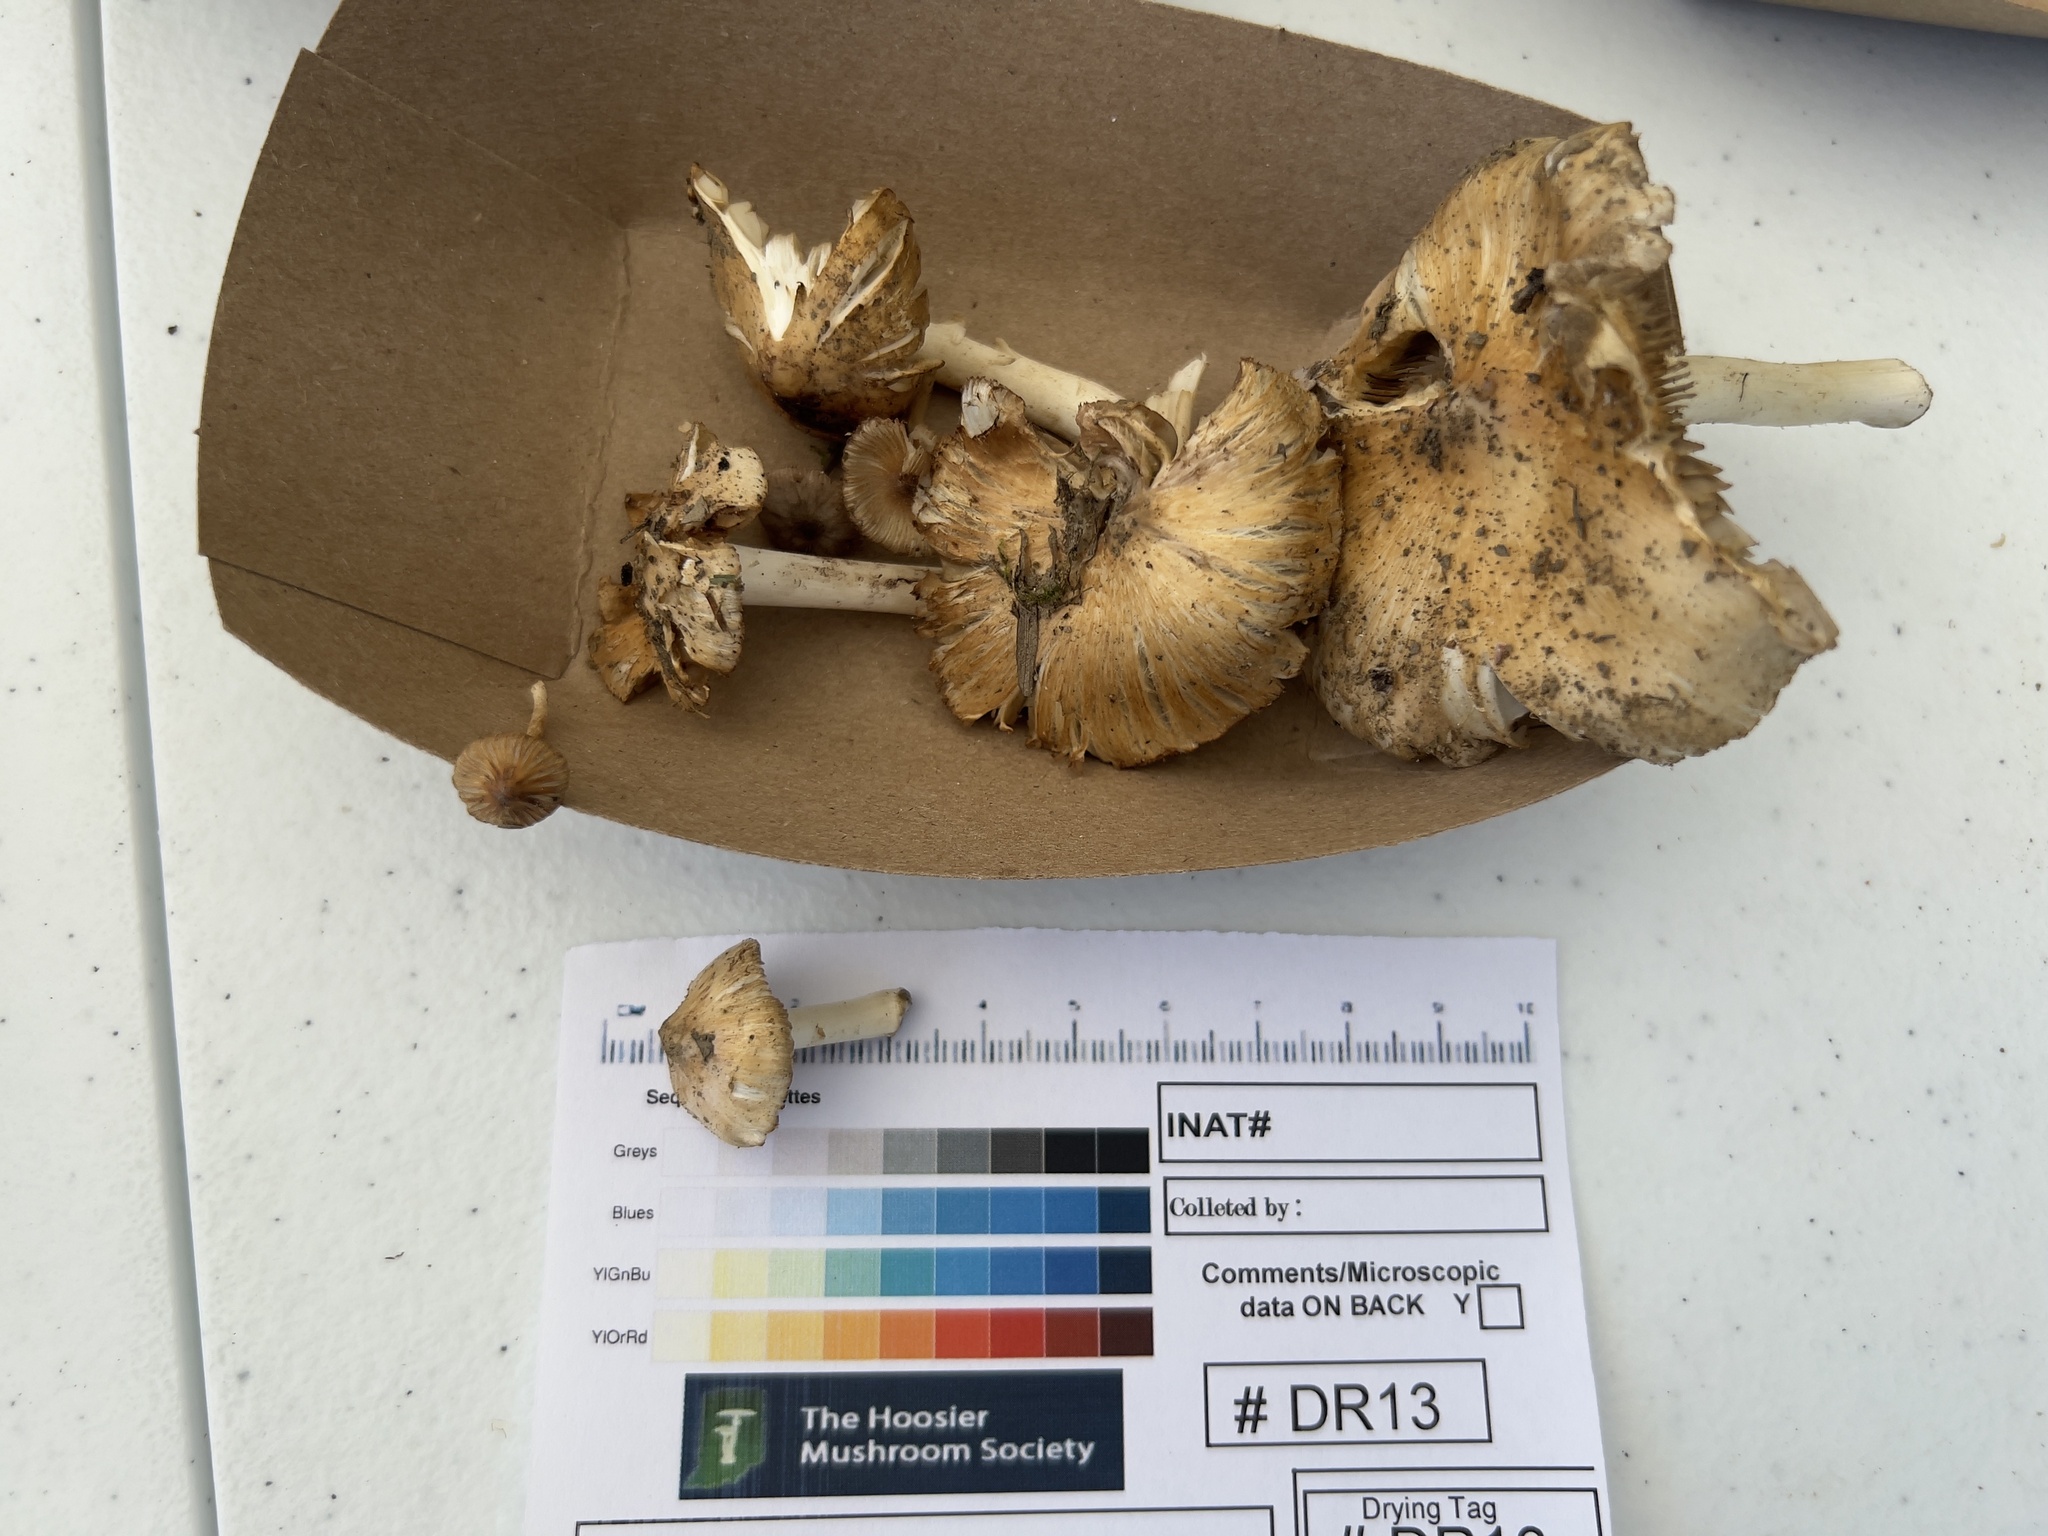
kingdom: Fungi
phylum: Basidiomycota
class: Agaricomycetes
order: Agaricales
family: Inocybaceae
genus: Pseudosperma
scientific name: Pseudosperma sororium
